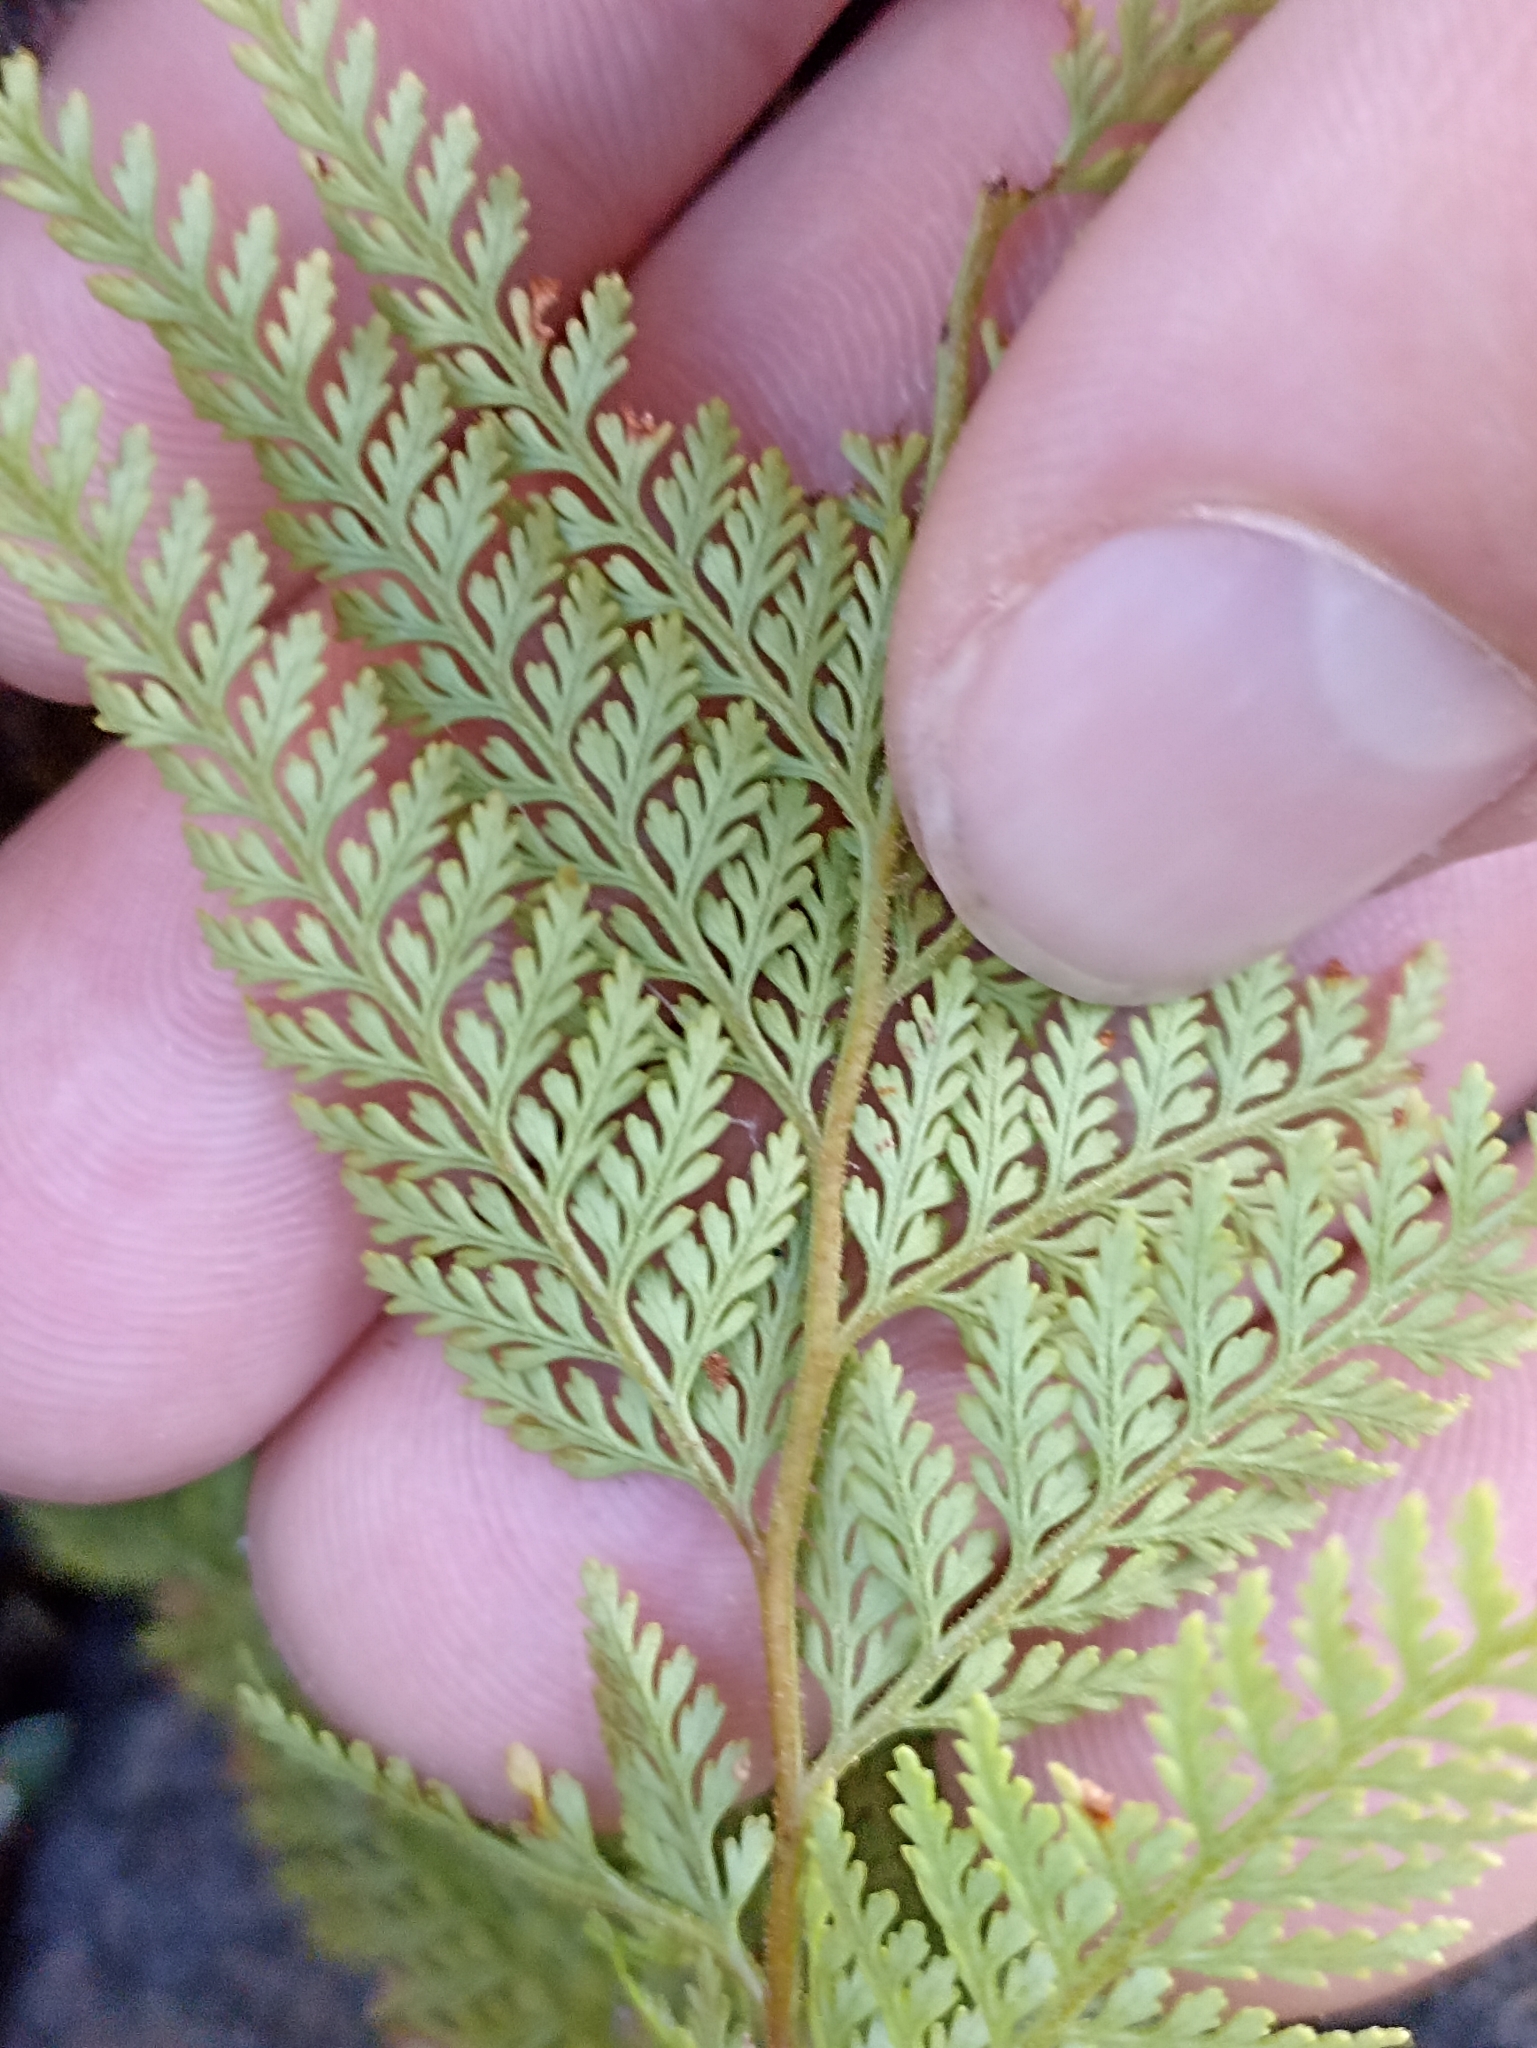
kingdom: Plantae
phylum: Tracheophyta
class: Polypodiopsida
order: Polypodiales
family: Dennstaedtiaceae
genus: Paesia
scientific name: Paesia scaberula
